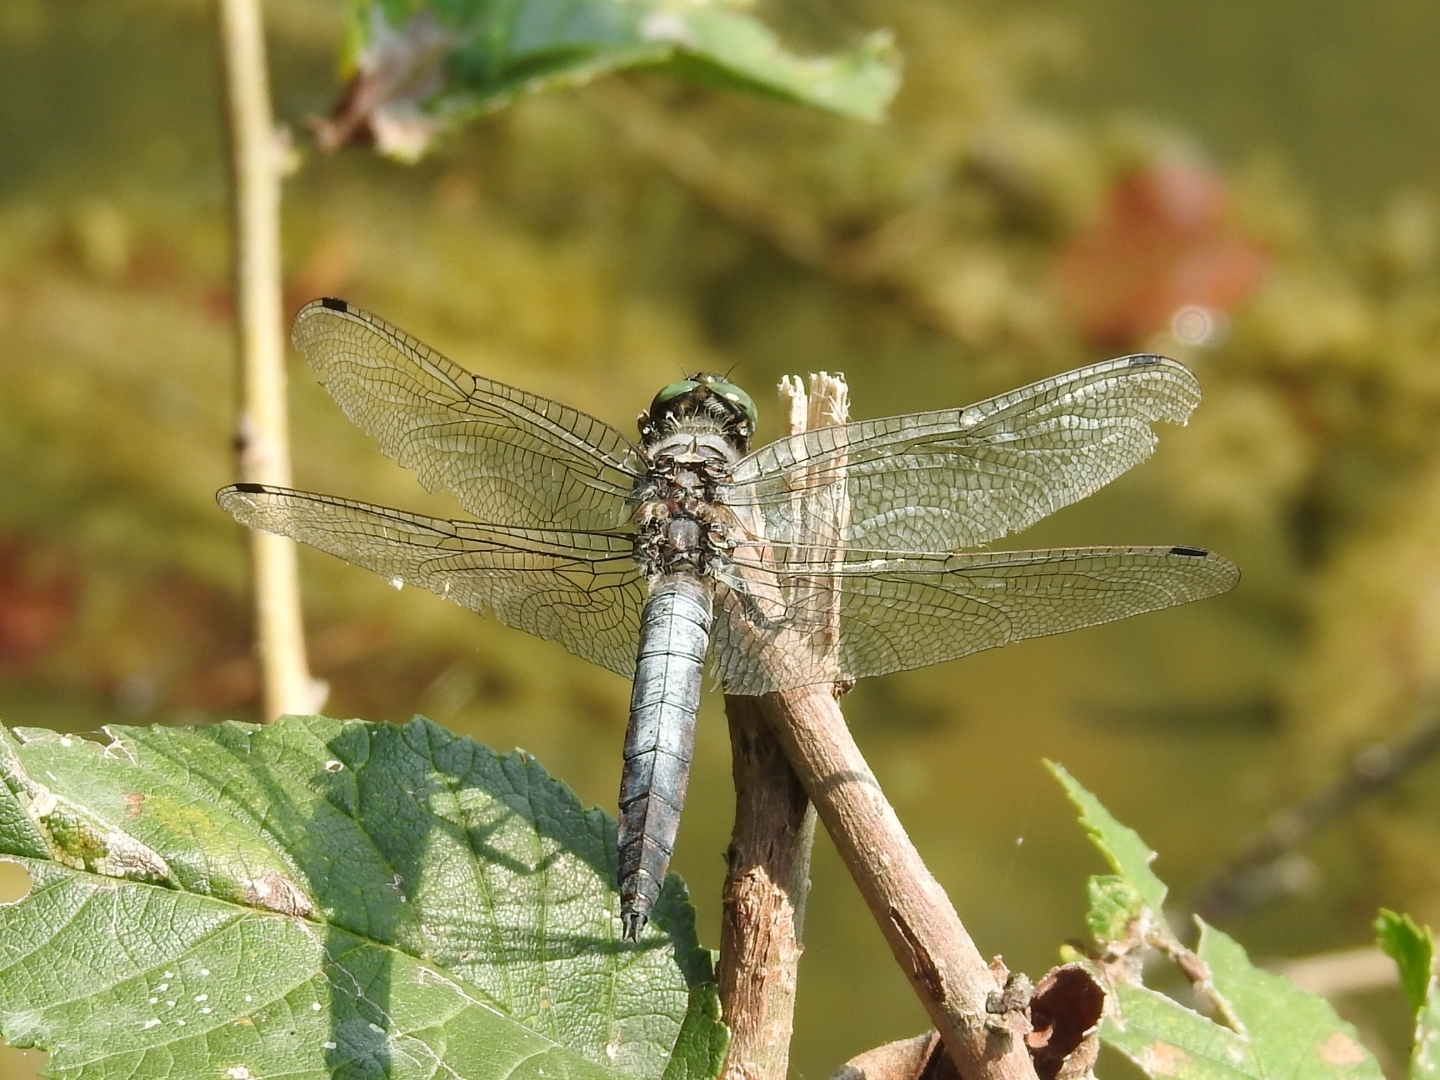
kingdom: Animalia
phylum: Arthropoda
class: Insecta
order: Odonata
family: Libellulidae
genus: Orthetrum
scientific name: Orthetrum cancellatum
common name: Black-tailed skimmer
